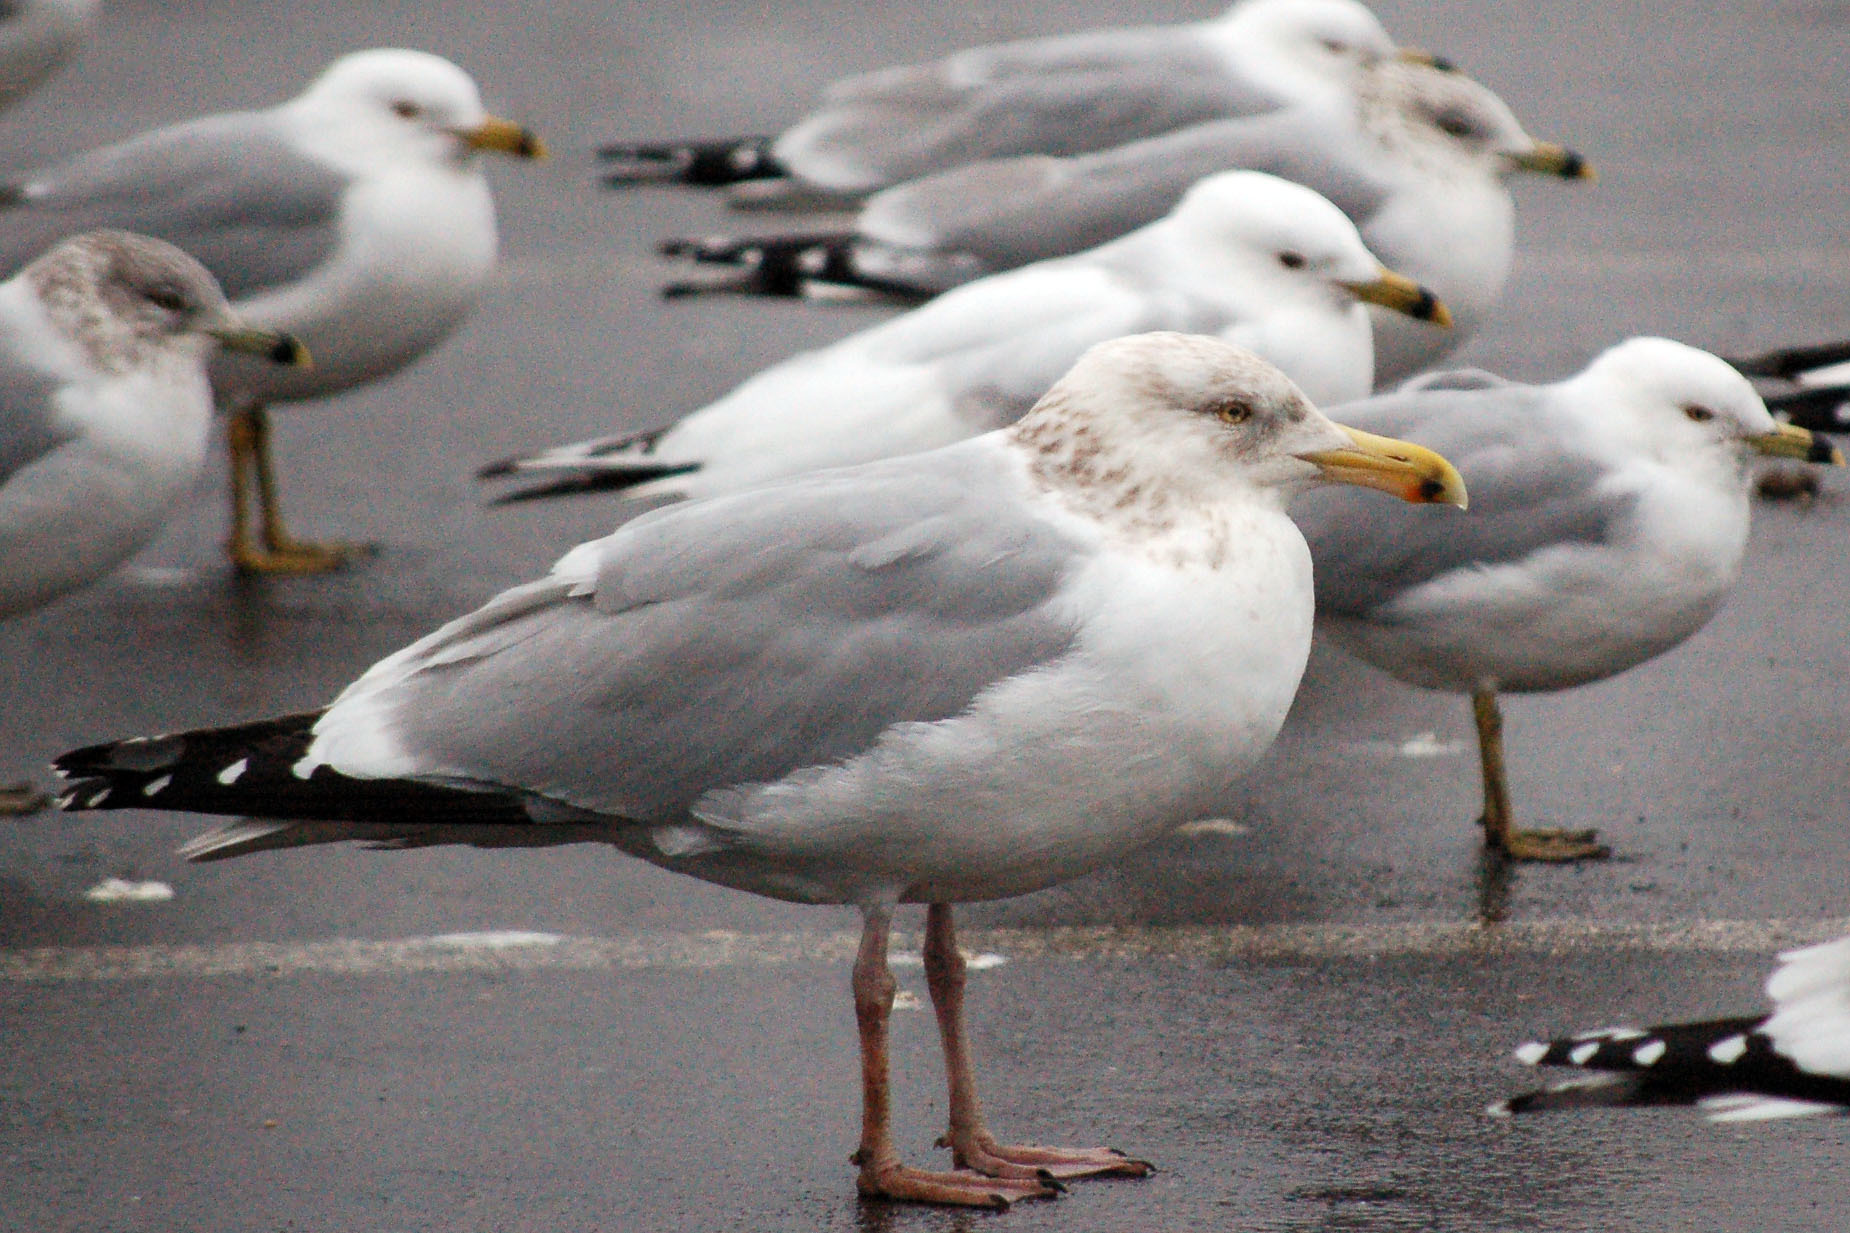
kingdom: Animalia
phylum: Chordata
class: Aves
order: Charadriiformes
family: Laridae
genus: Larus
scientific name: Larus argentatus
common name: Herring gull
